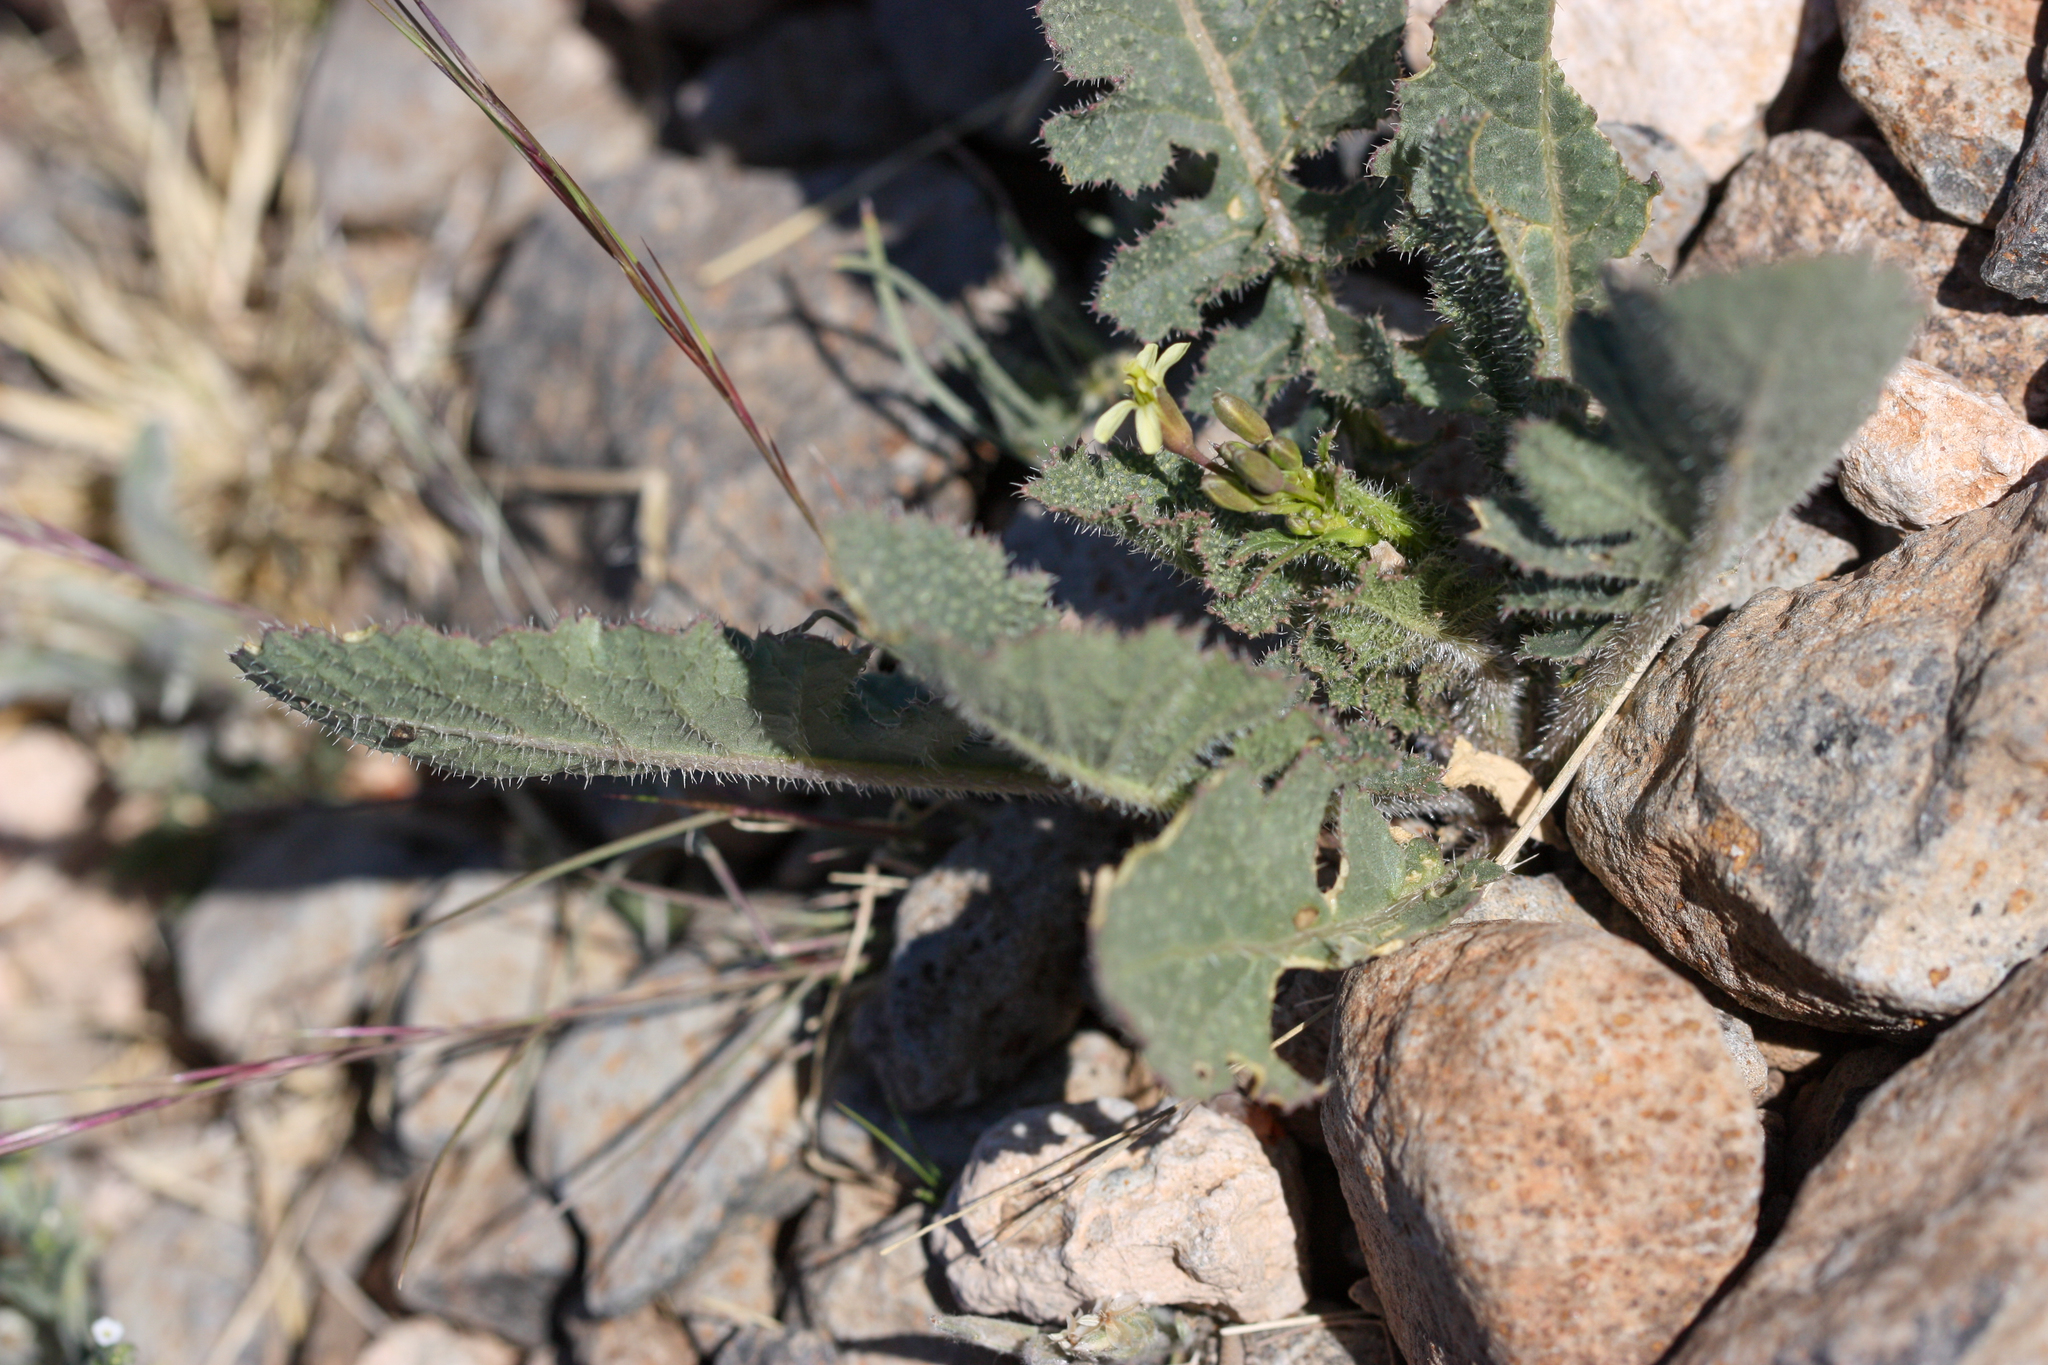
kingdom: Plantae
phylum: Tracheophyta
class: Magnoliopsida
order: Brassicales
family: Brassicaceae
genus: Brassica
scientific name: Brassica tournefortii
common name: Pale cabbage
